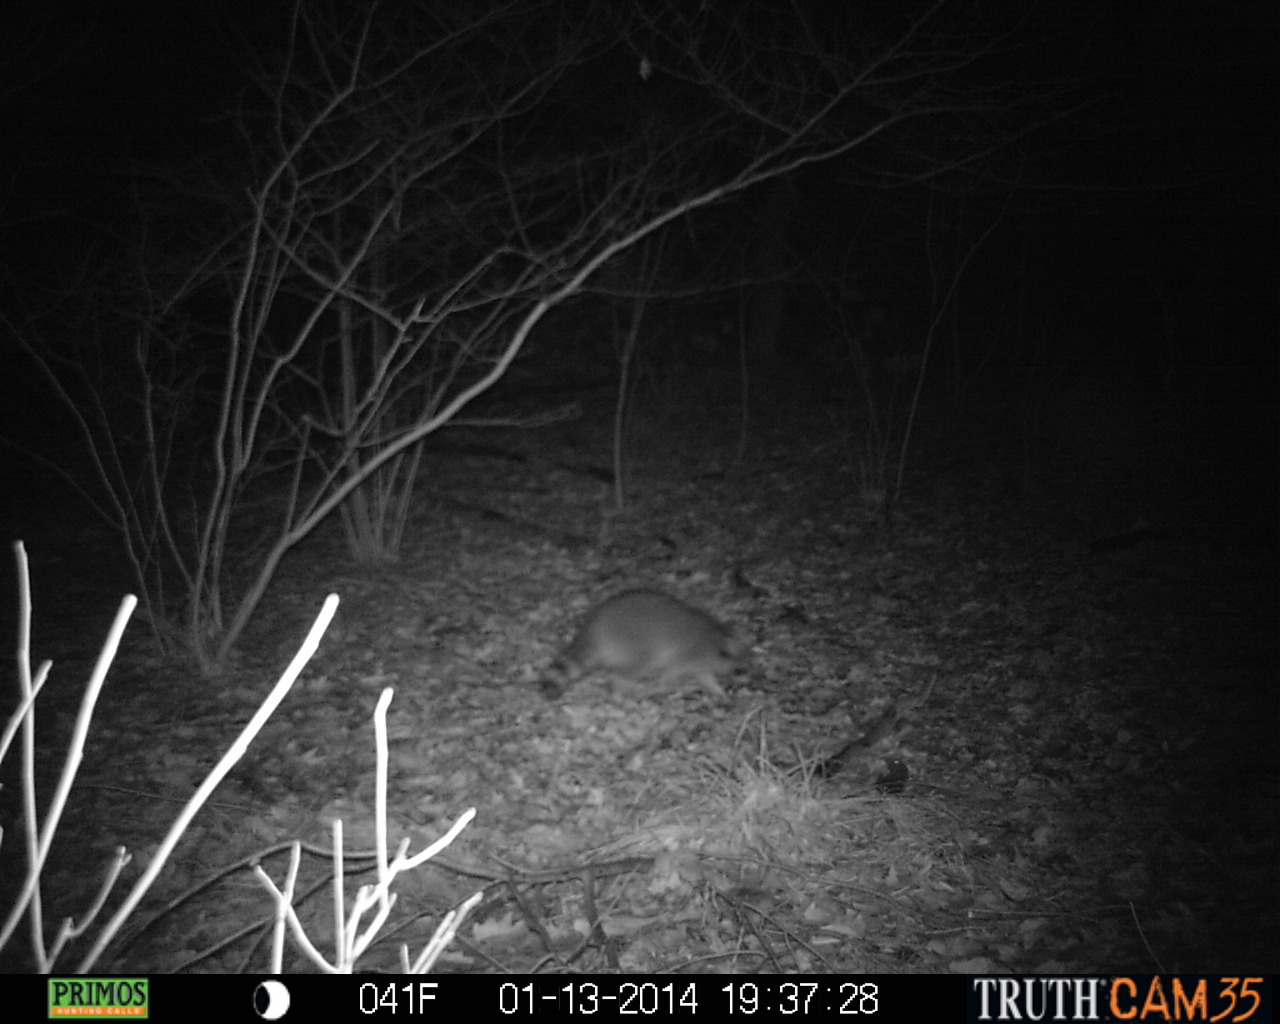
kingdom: Animalia
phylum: Chordata
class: Mammalia
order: Carnivora
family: Procyonidae
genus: Procyon
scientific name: Procyon lotor
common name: Raccoon
